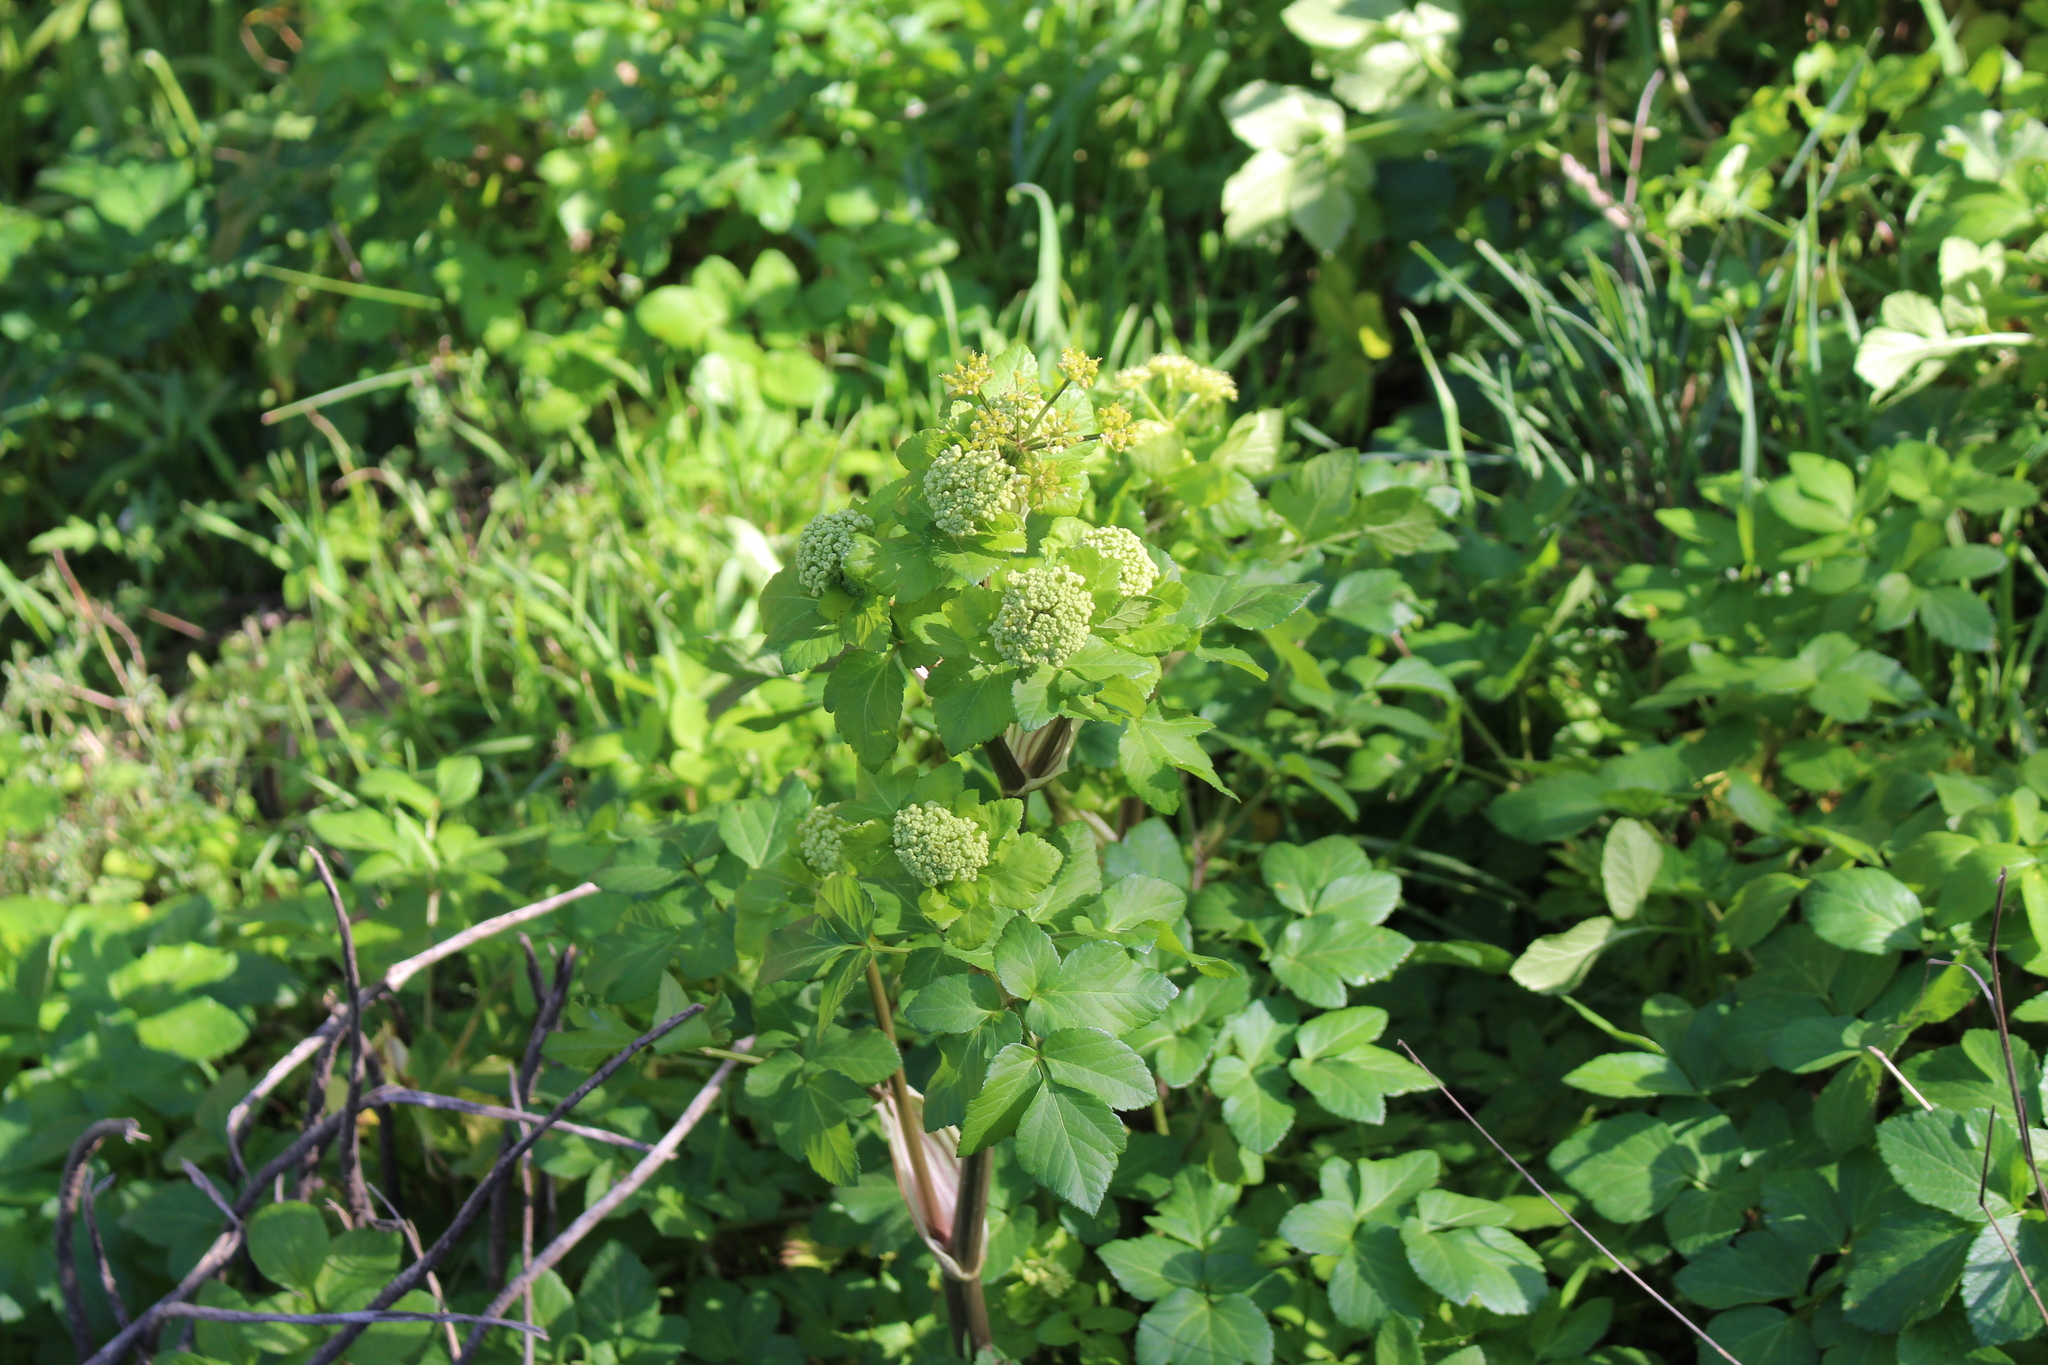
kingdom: Plantae
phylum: Tracheophyta
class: Magnoliopsida
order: Apiales
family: Apiaceae
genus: Smyrnium
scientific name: Smyrnium olusatrum
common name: Alexanders
